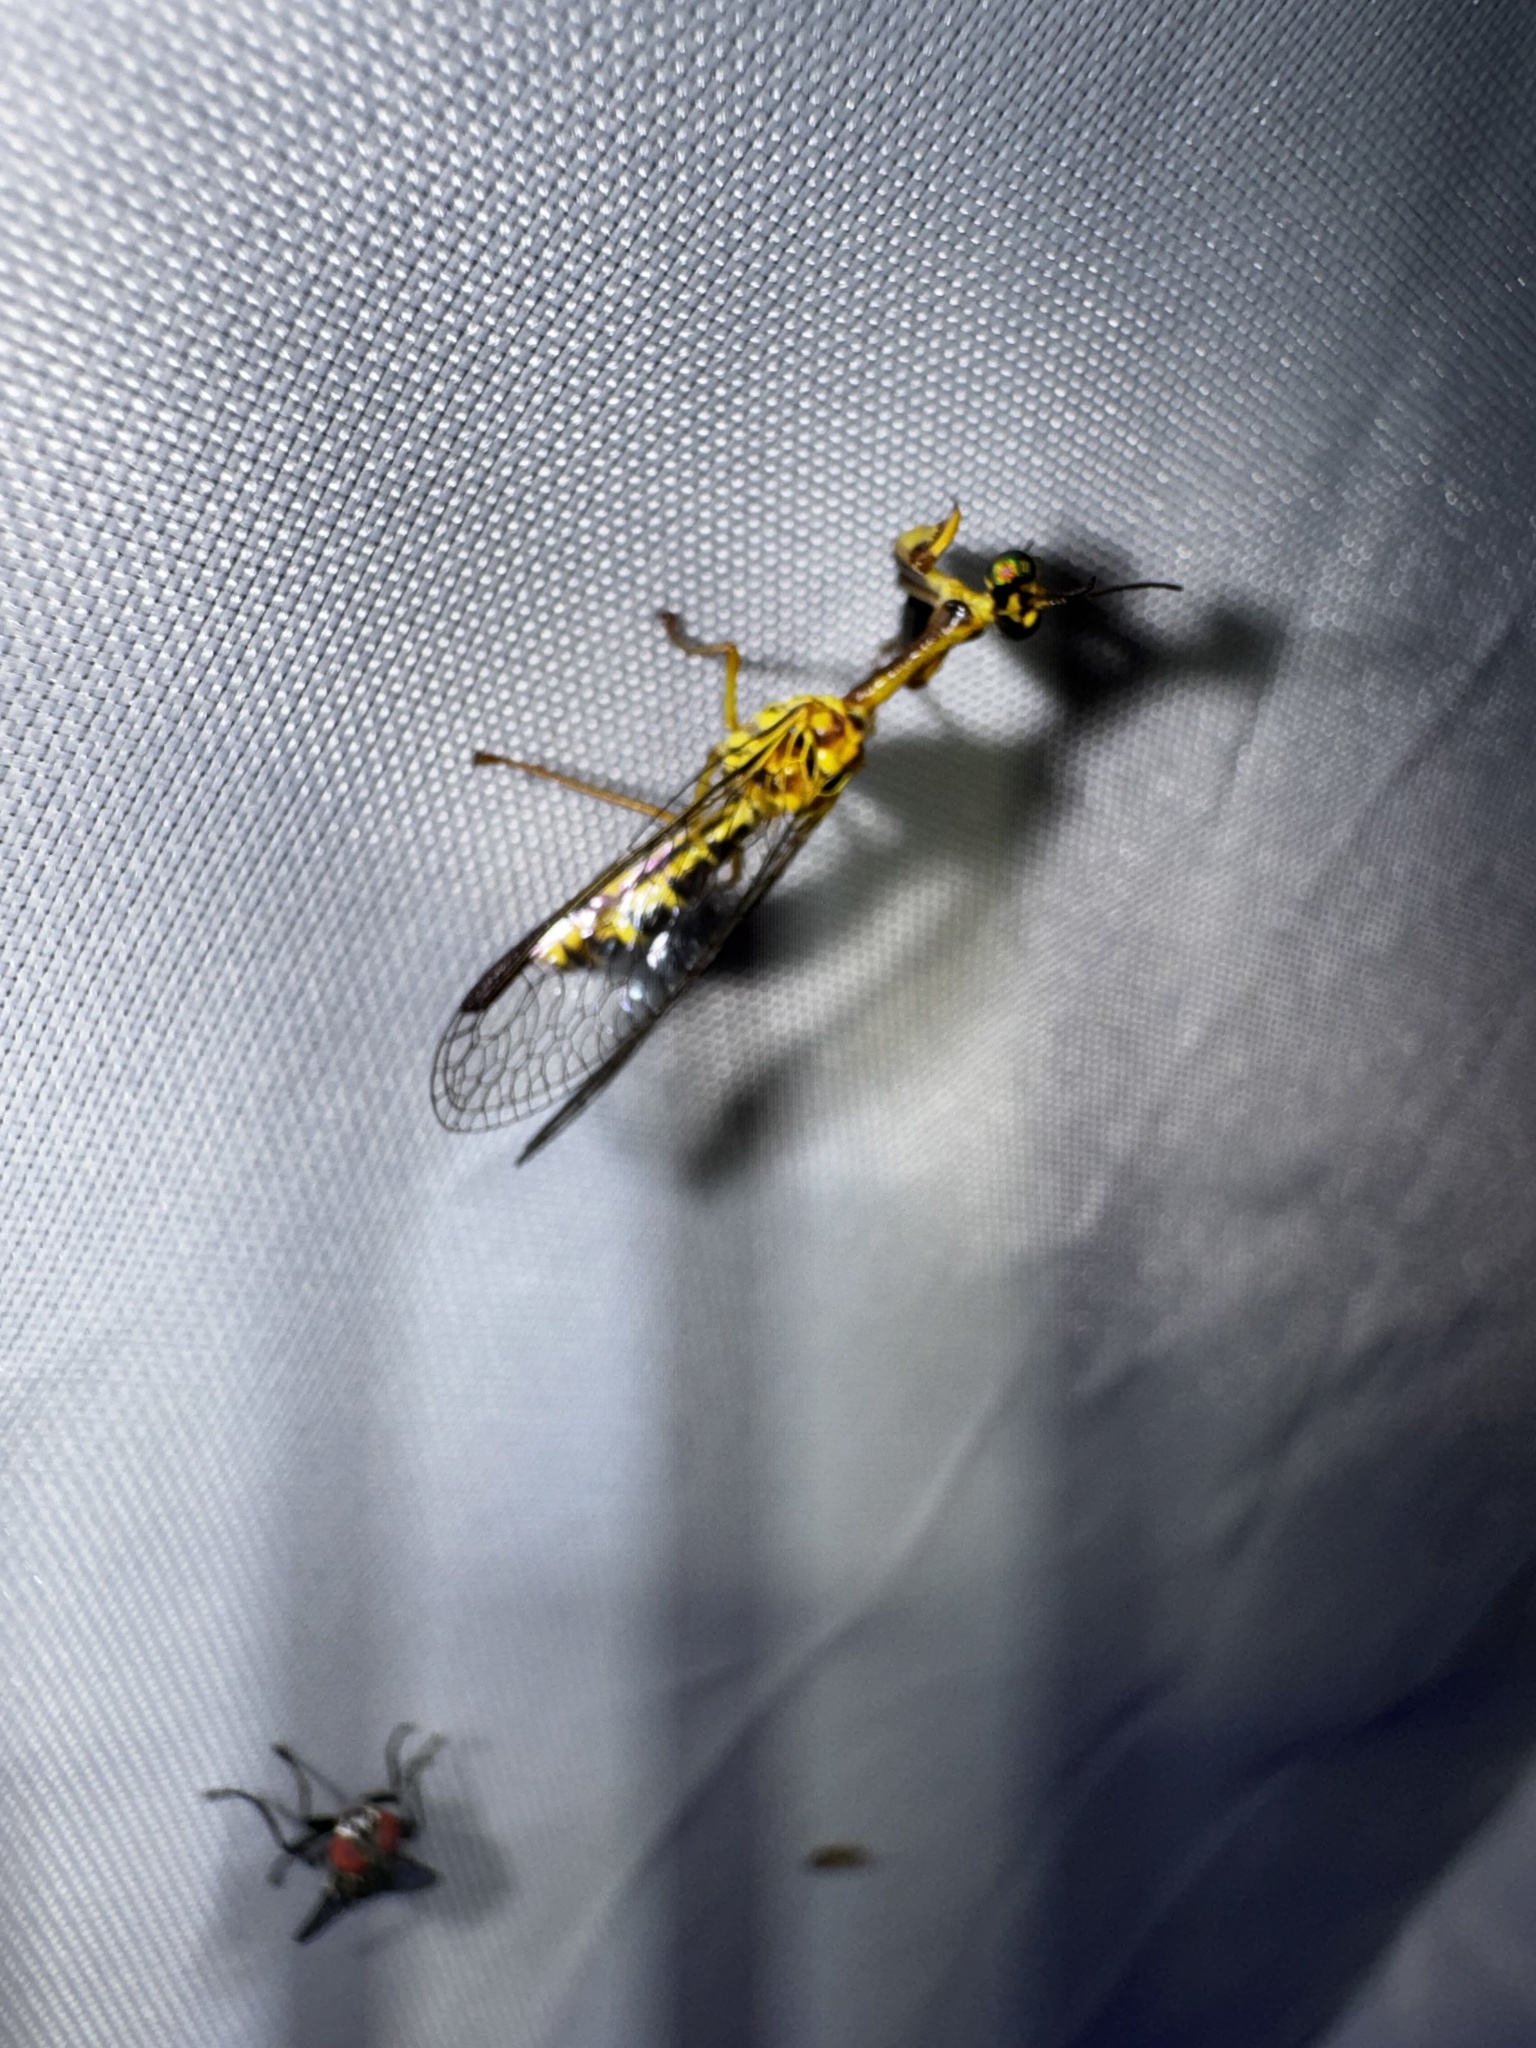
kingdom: Animalia
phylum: Arthropoda
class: Insecta
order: Neuroptera
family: Mantispidae
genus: Spaminta
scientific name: Spaminta minjerribae
